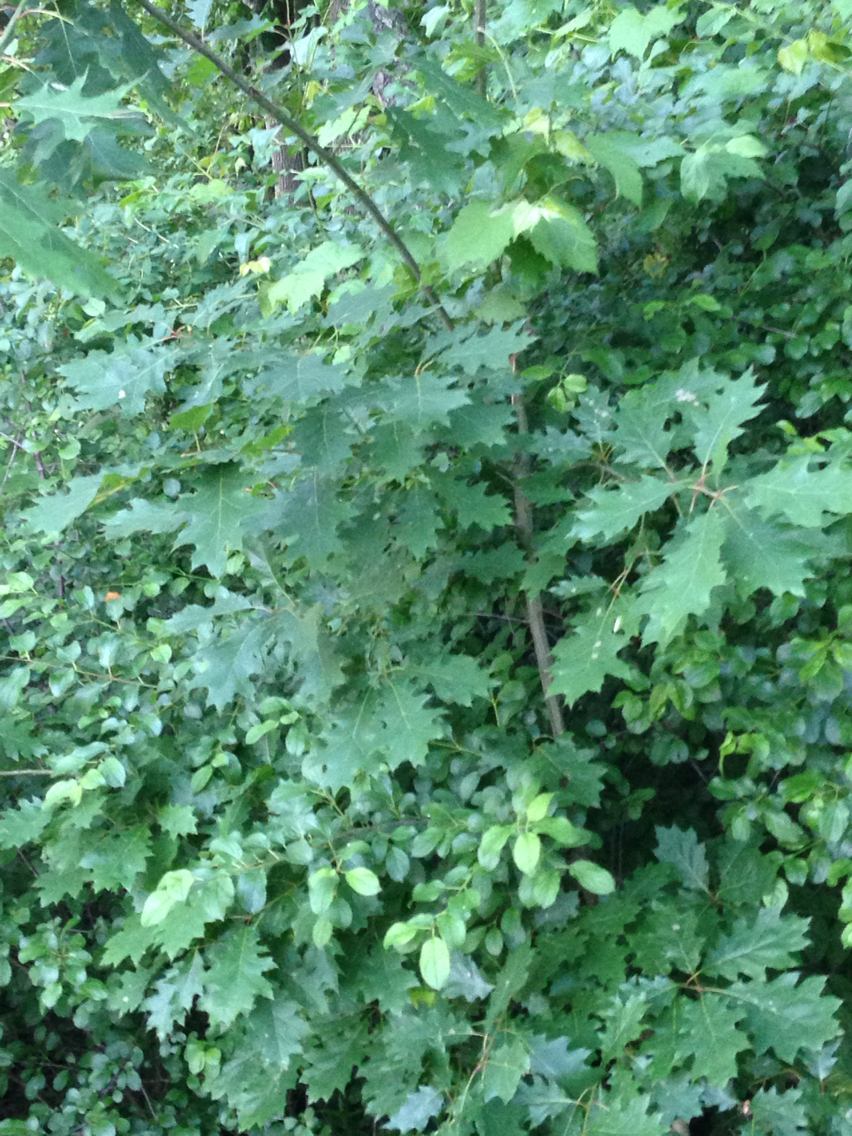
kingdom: Plantae
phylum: Tracheophyta
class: Magnoliopsida
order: Fagales
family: Fagaceae
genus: Quercus
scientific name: Quercus rubra
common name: Red oak
